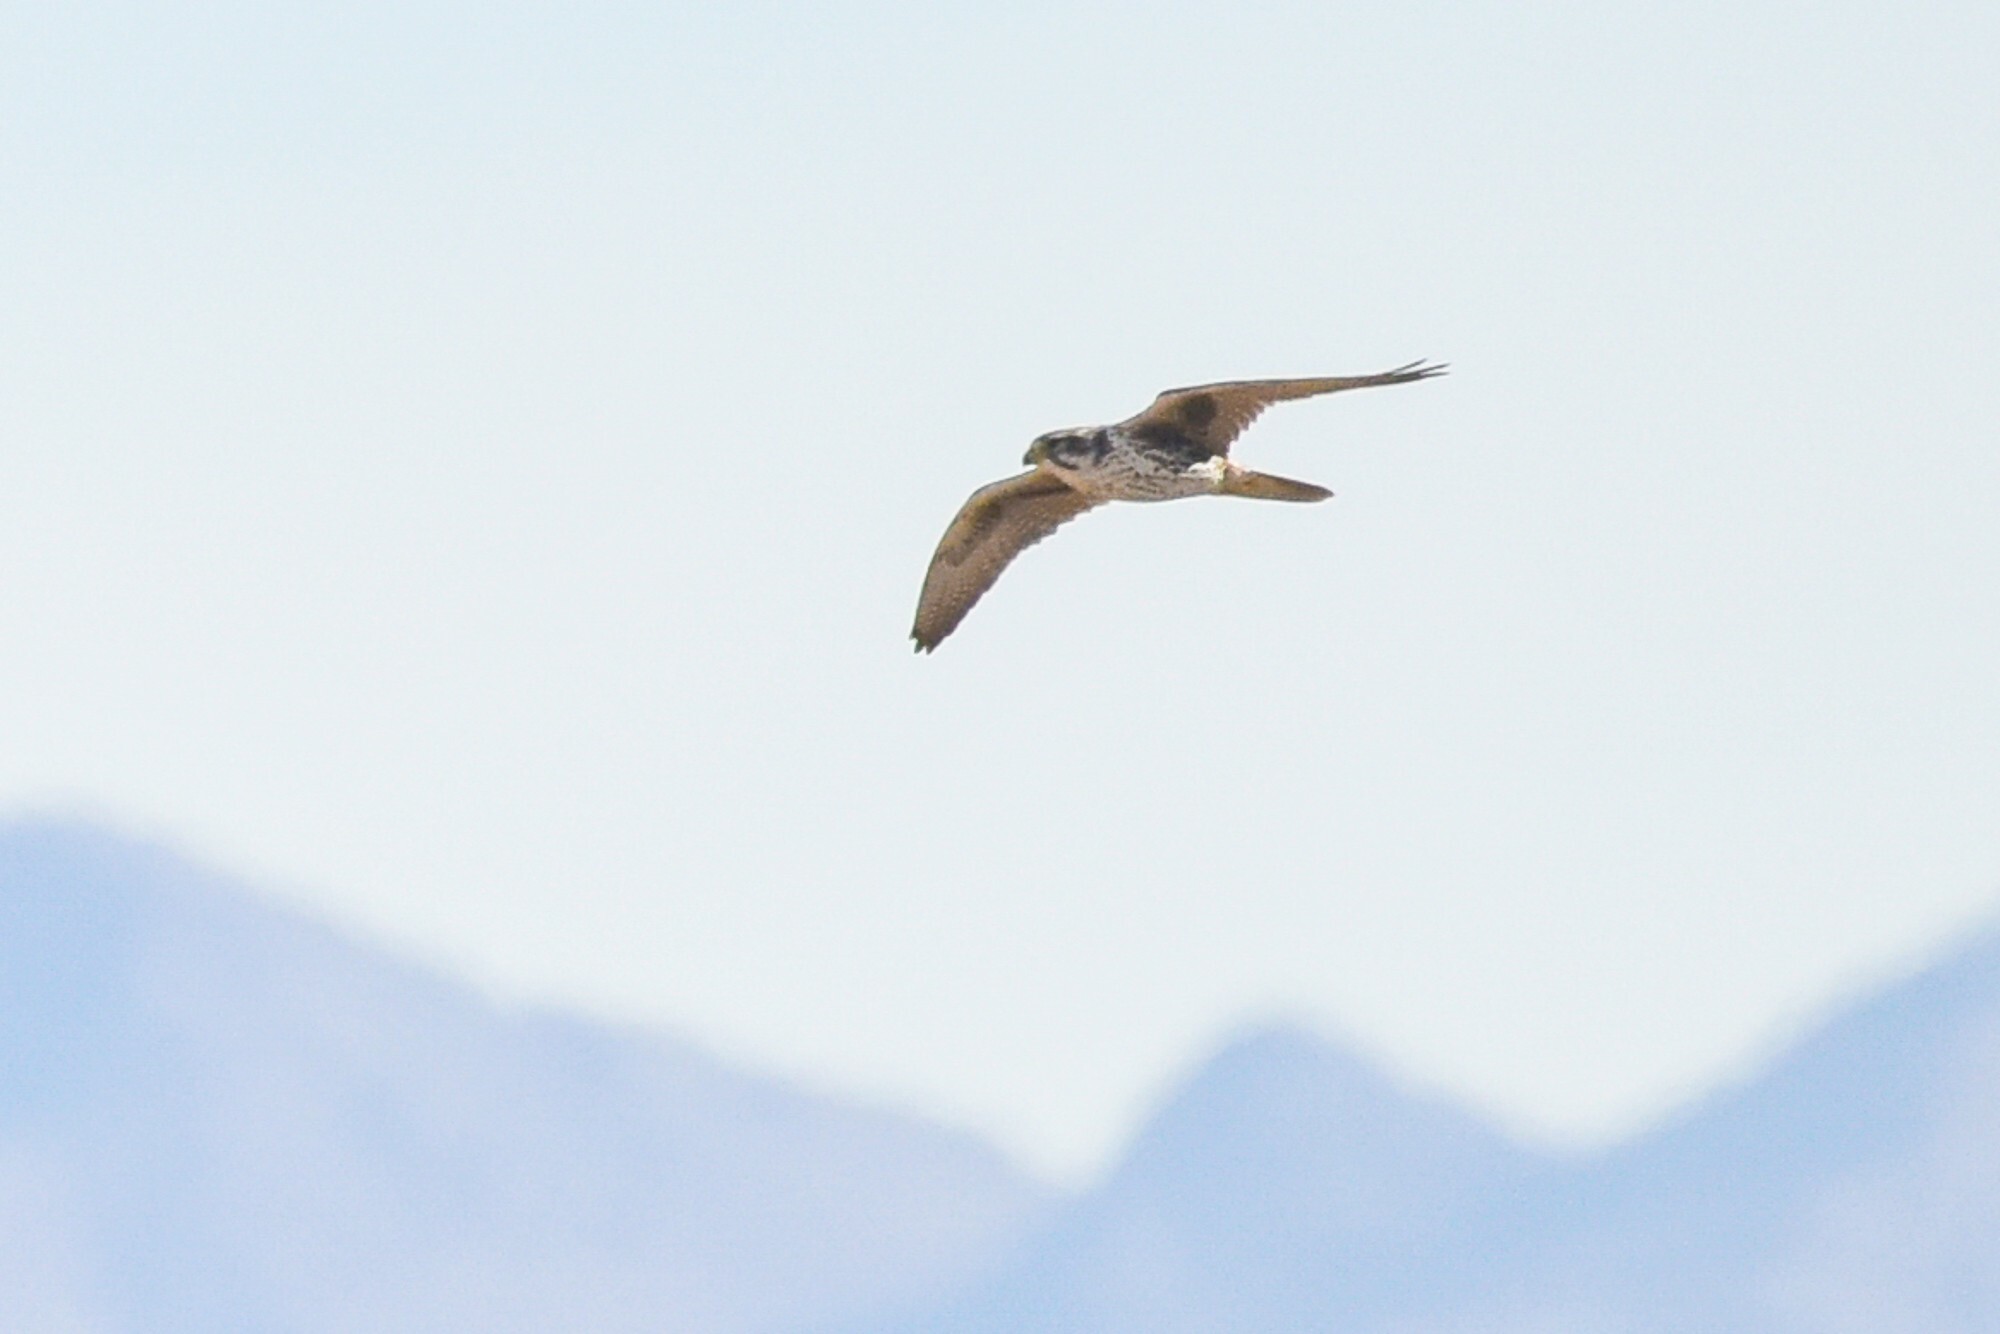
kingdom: Animalia
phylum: Chordata
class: Aves
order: Falconiformes
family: Falconidae
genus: Falco
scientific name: Falco mexicanus
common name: Prairie falcon
